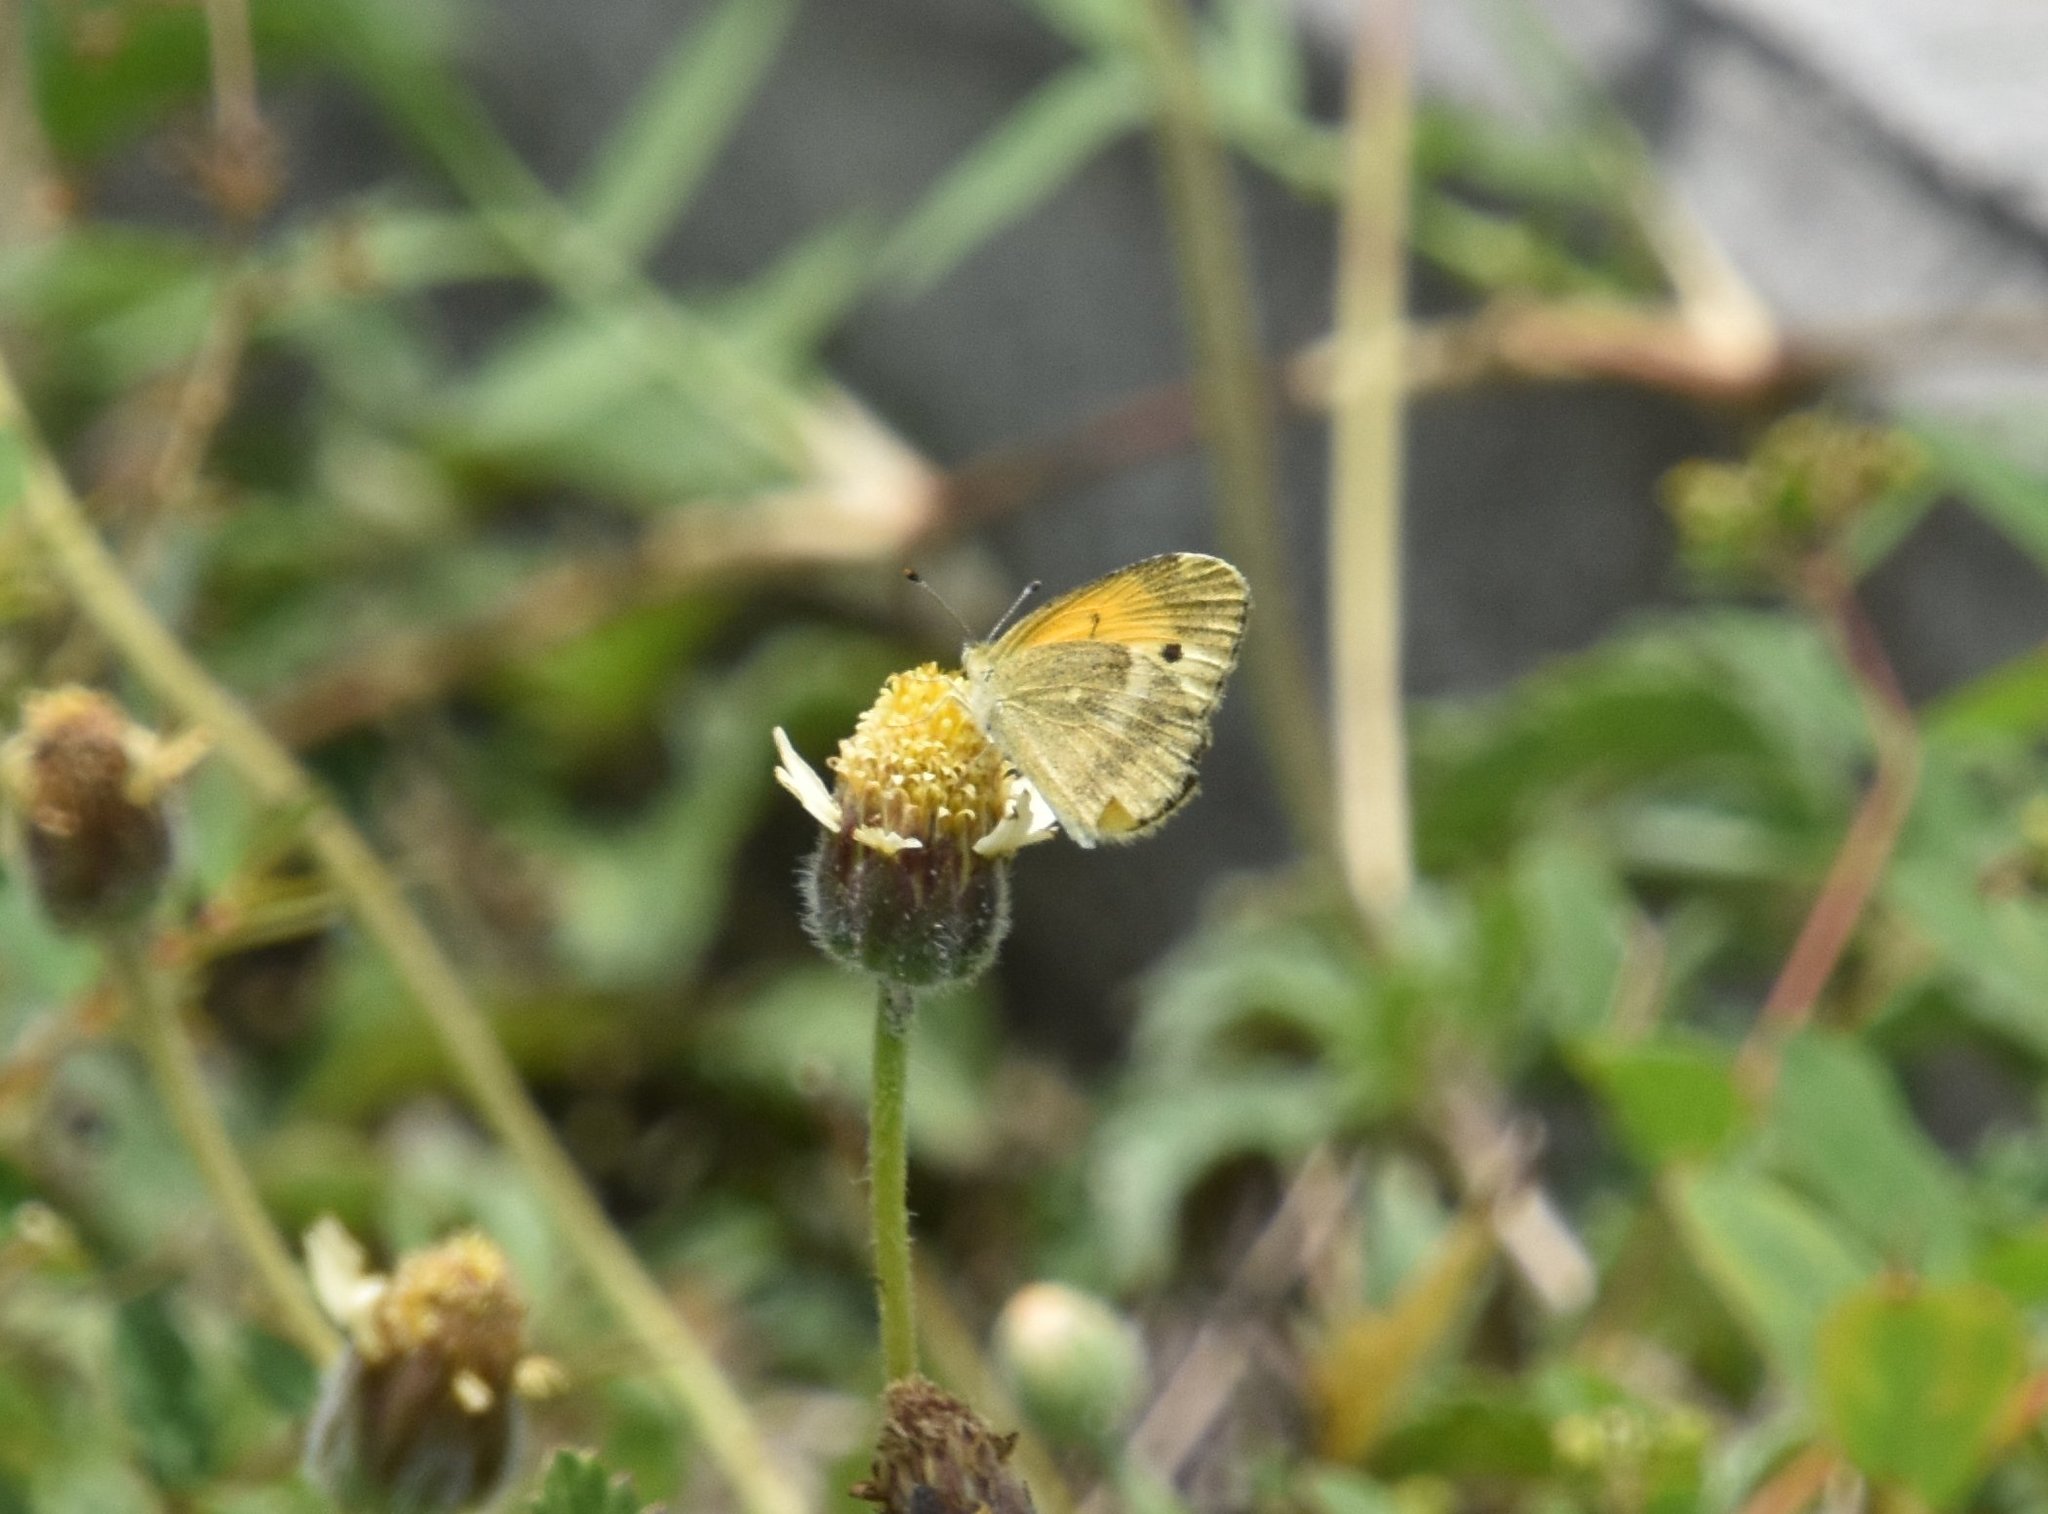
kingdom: Animalia
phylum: Arthropoda
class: Insecta
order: Lepidoptera
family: Pieridae
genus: Nathalis
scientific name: Nathalis iole
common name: Dainty sulphur
